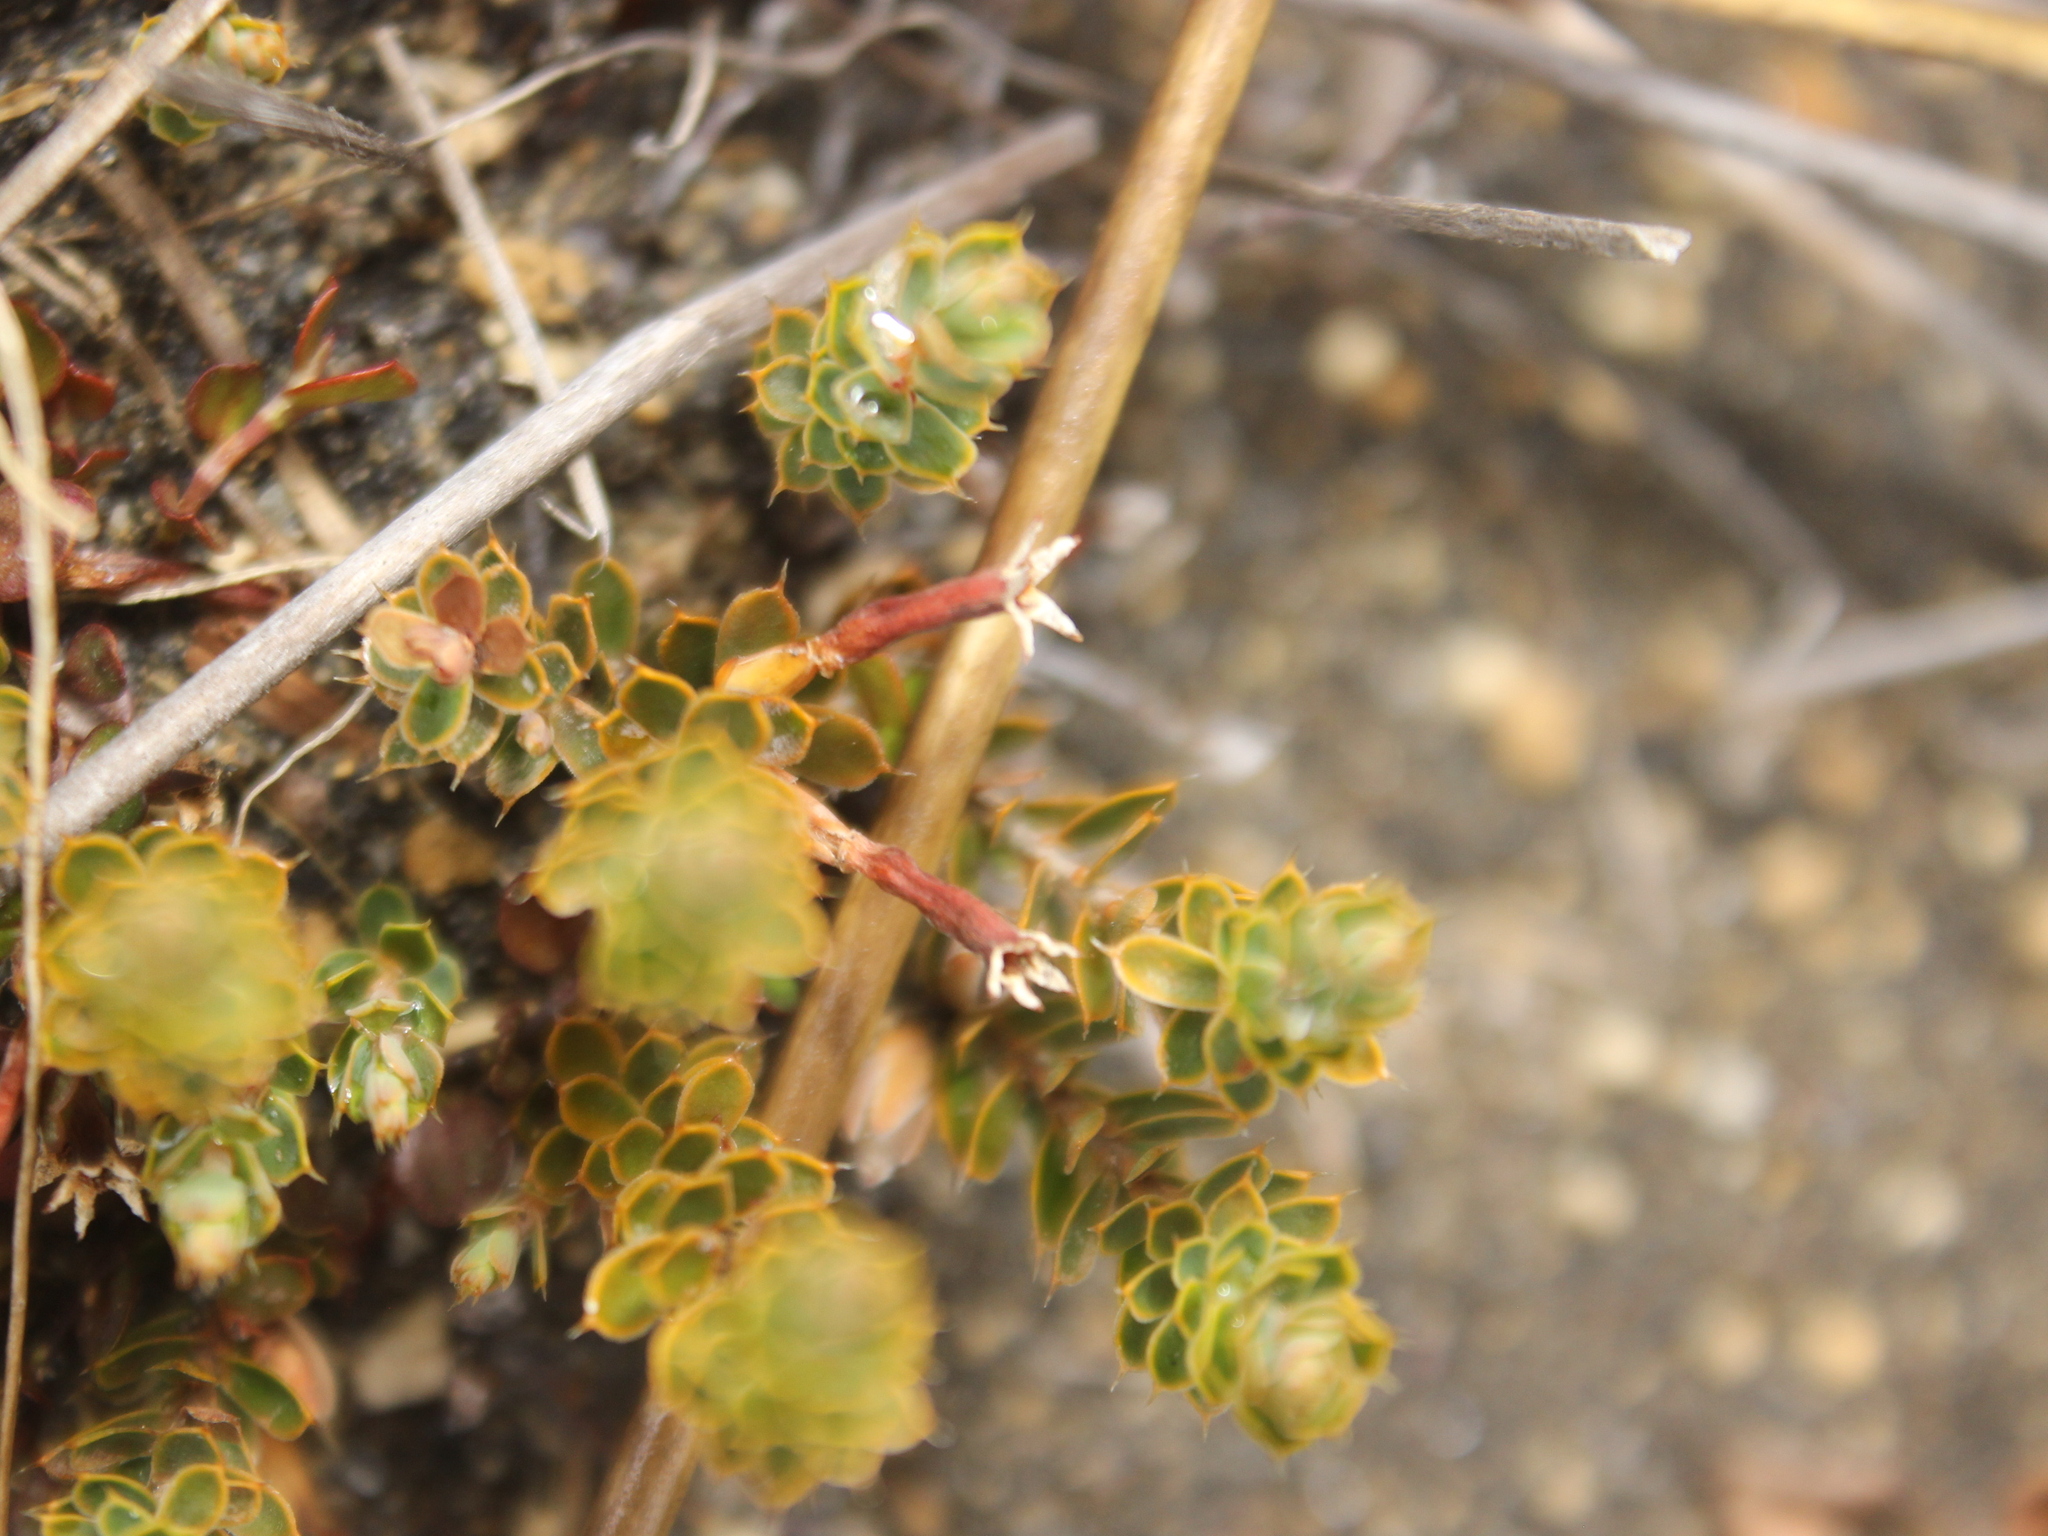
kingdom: Plantae
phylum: Tracheophyta
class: Magnoliopsida
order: Ericales
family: Ericaceae
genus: Styphelia
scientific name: Styphelia nesophila
